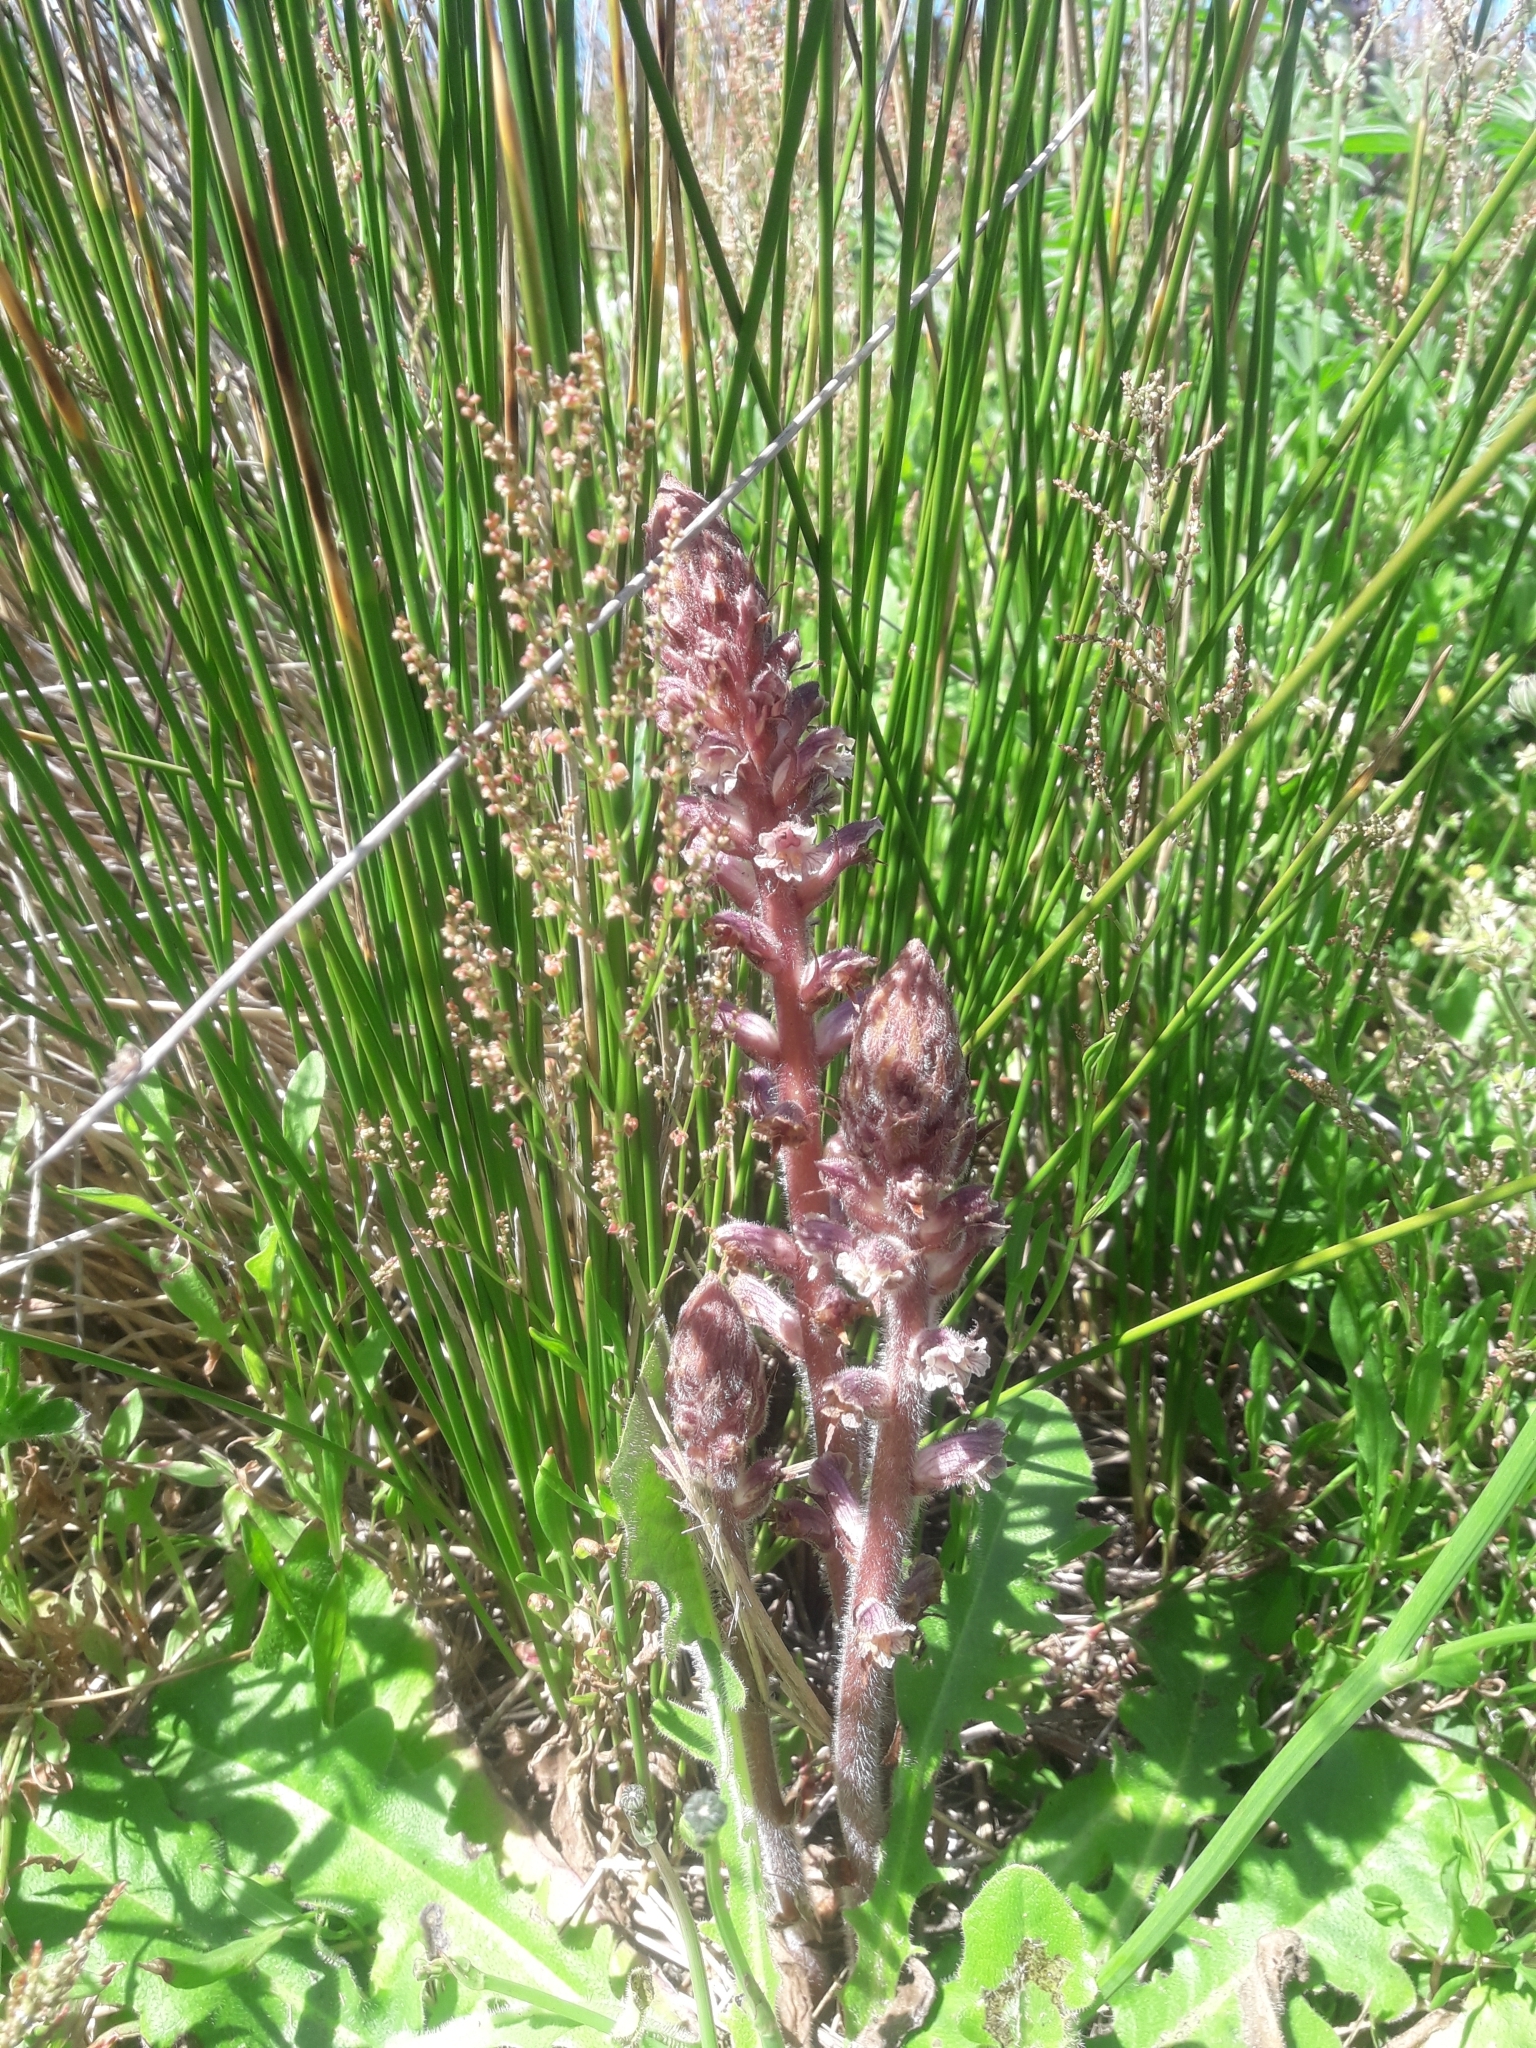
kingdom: Plantae
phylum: Tracheophyta
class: Magnoliopsida
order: Lamiales
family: Orobanchaceae
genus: Orobanche
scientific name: Orobanche minor
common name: Common broomrape
